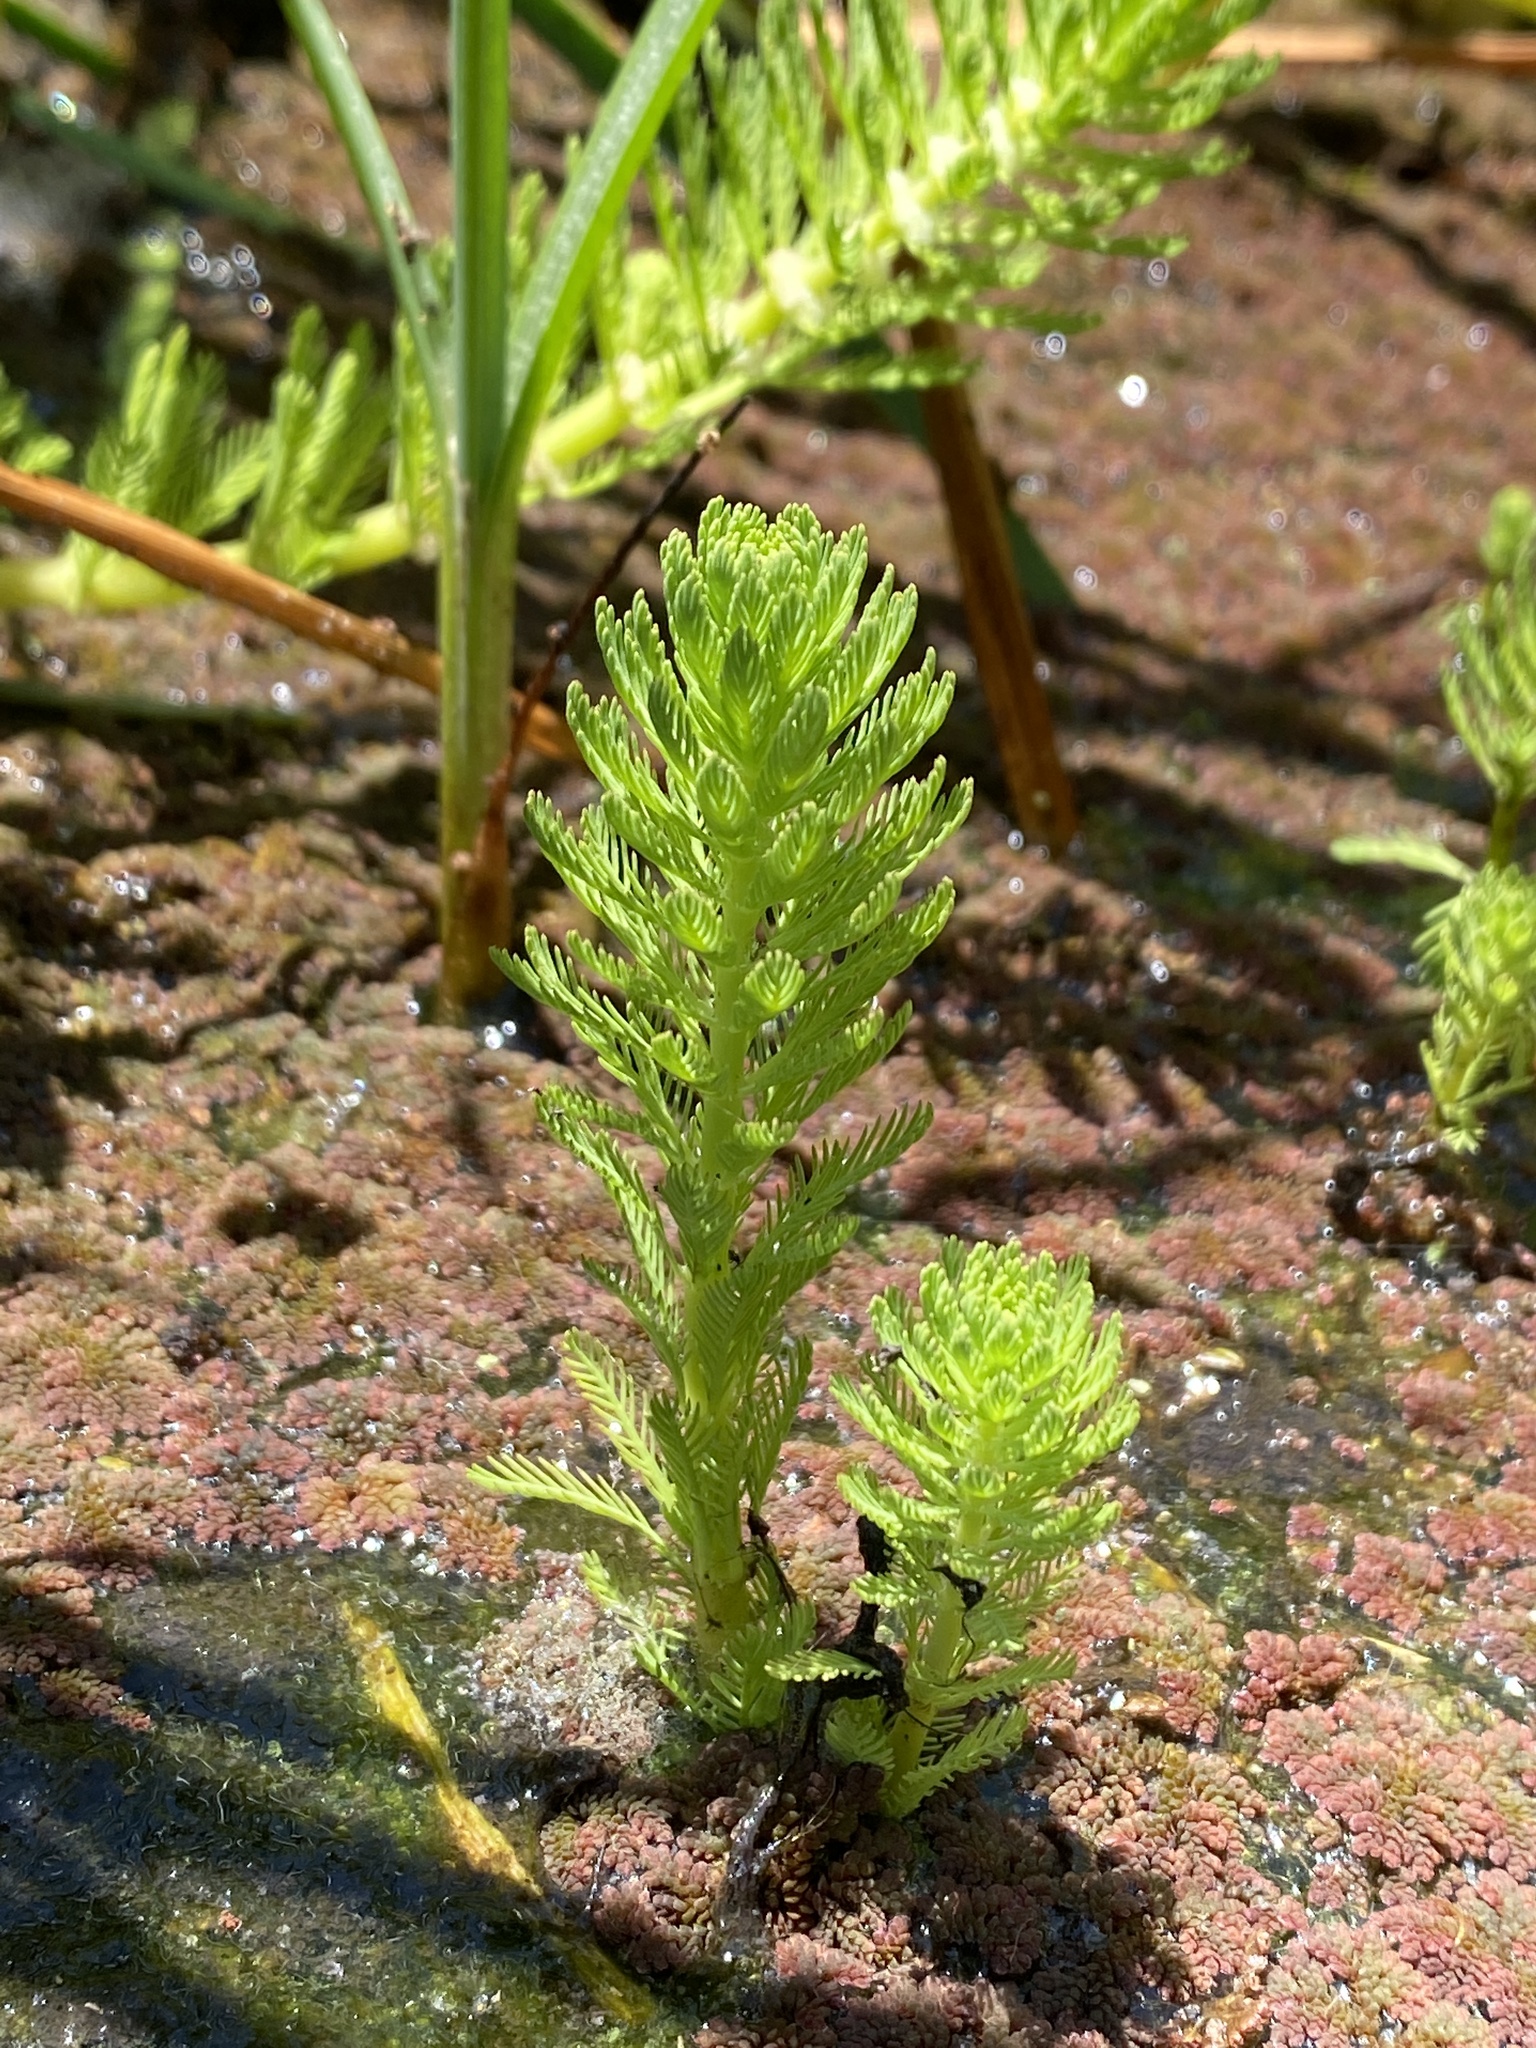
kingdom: Plantae
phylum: Tracheophyta
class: Magnoliopsida
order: Saxifragales
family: Haloragaceae
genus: Myriophyllum
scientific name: Myriophyllum aquaticum
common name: Parrot's feather
